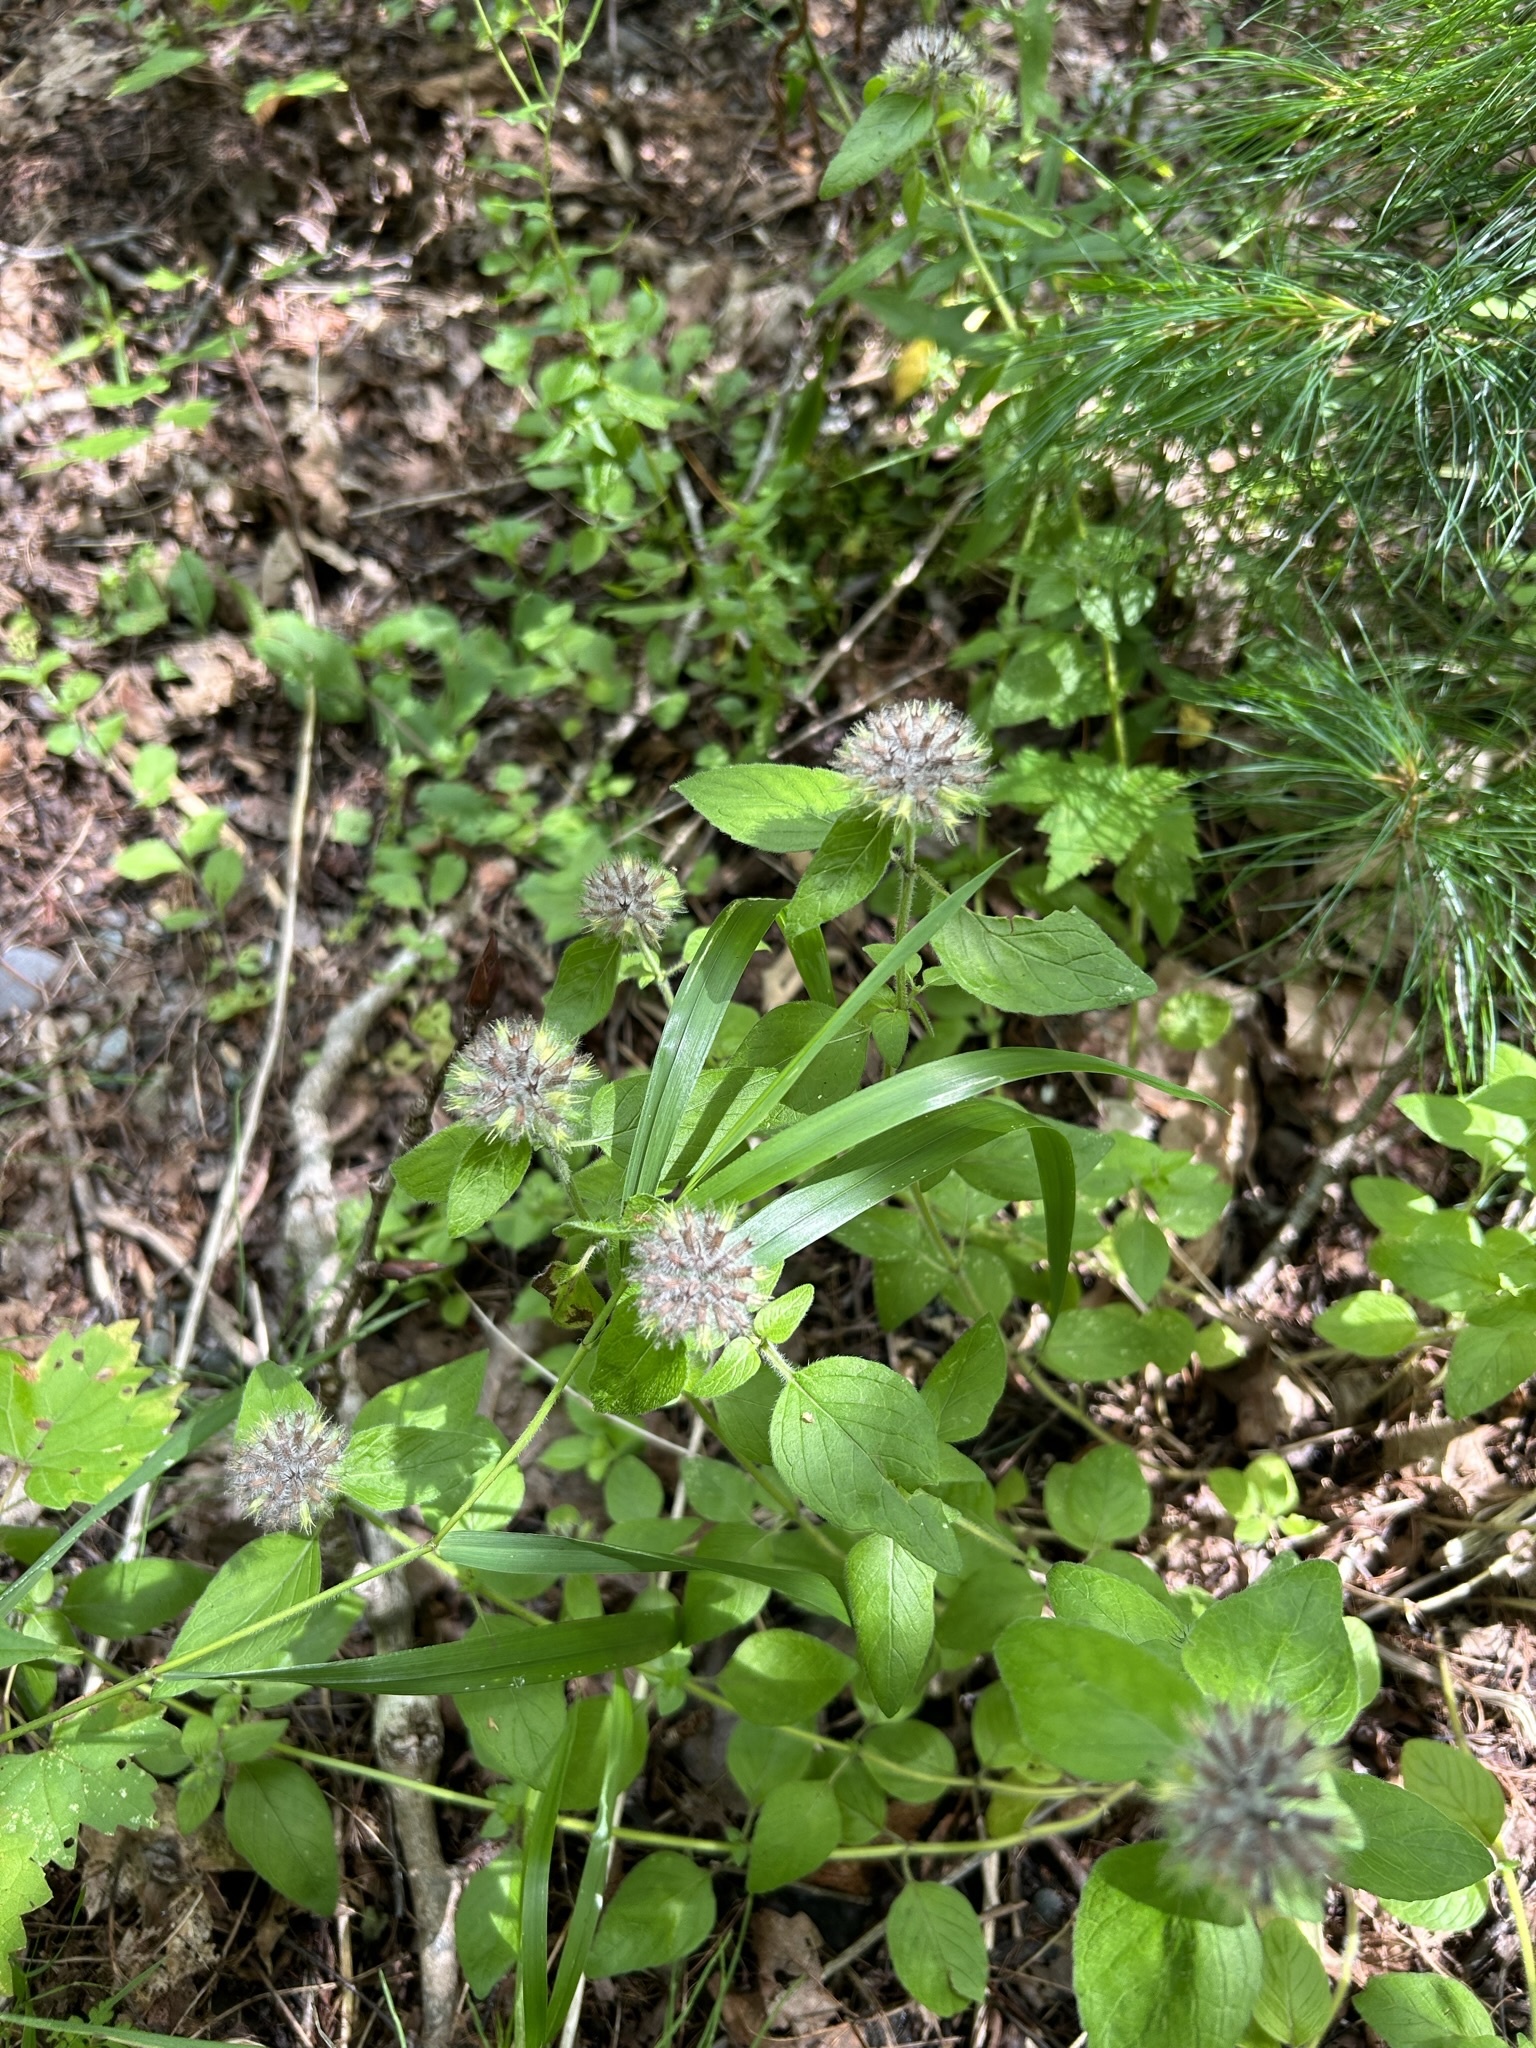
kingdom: Plantae
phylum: Tracheophyta
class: Magnoliopsida
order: Lamiales
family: Lamiaceae
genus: Clinopodium
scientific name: Clinopodium vulgare
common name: Wild basil
